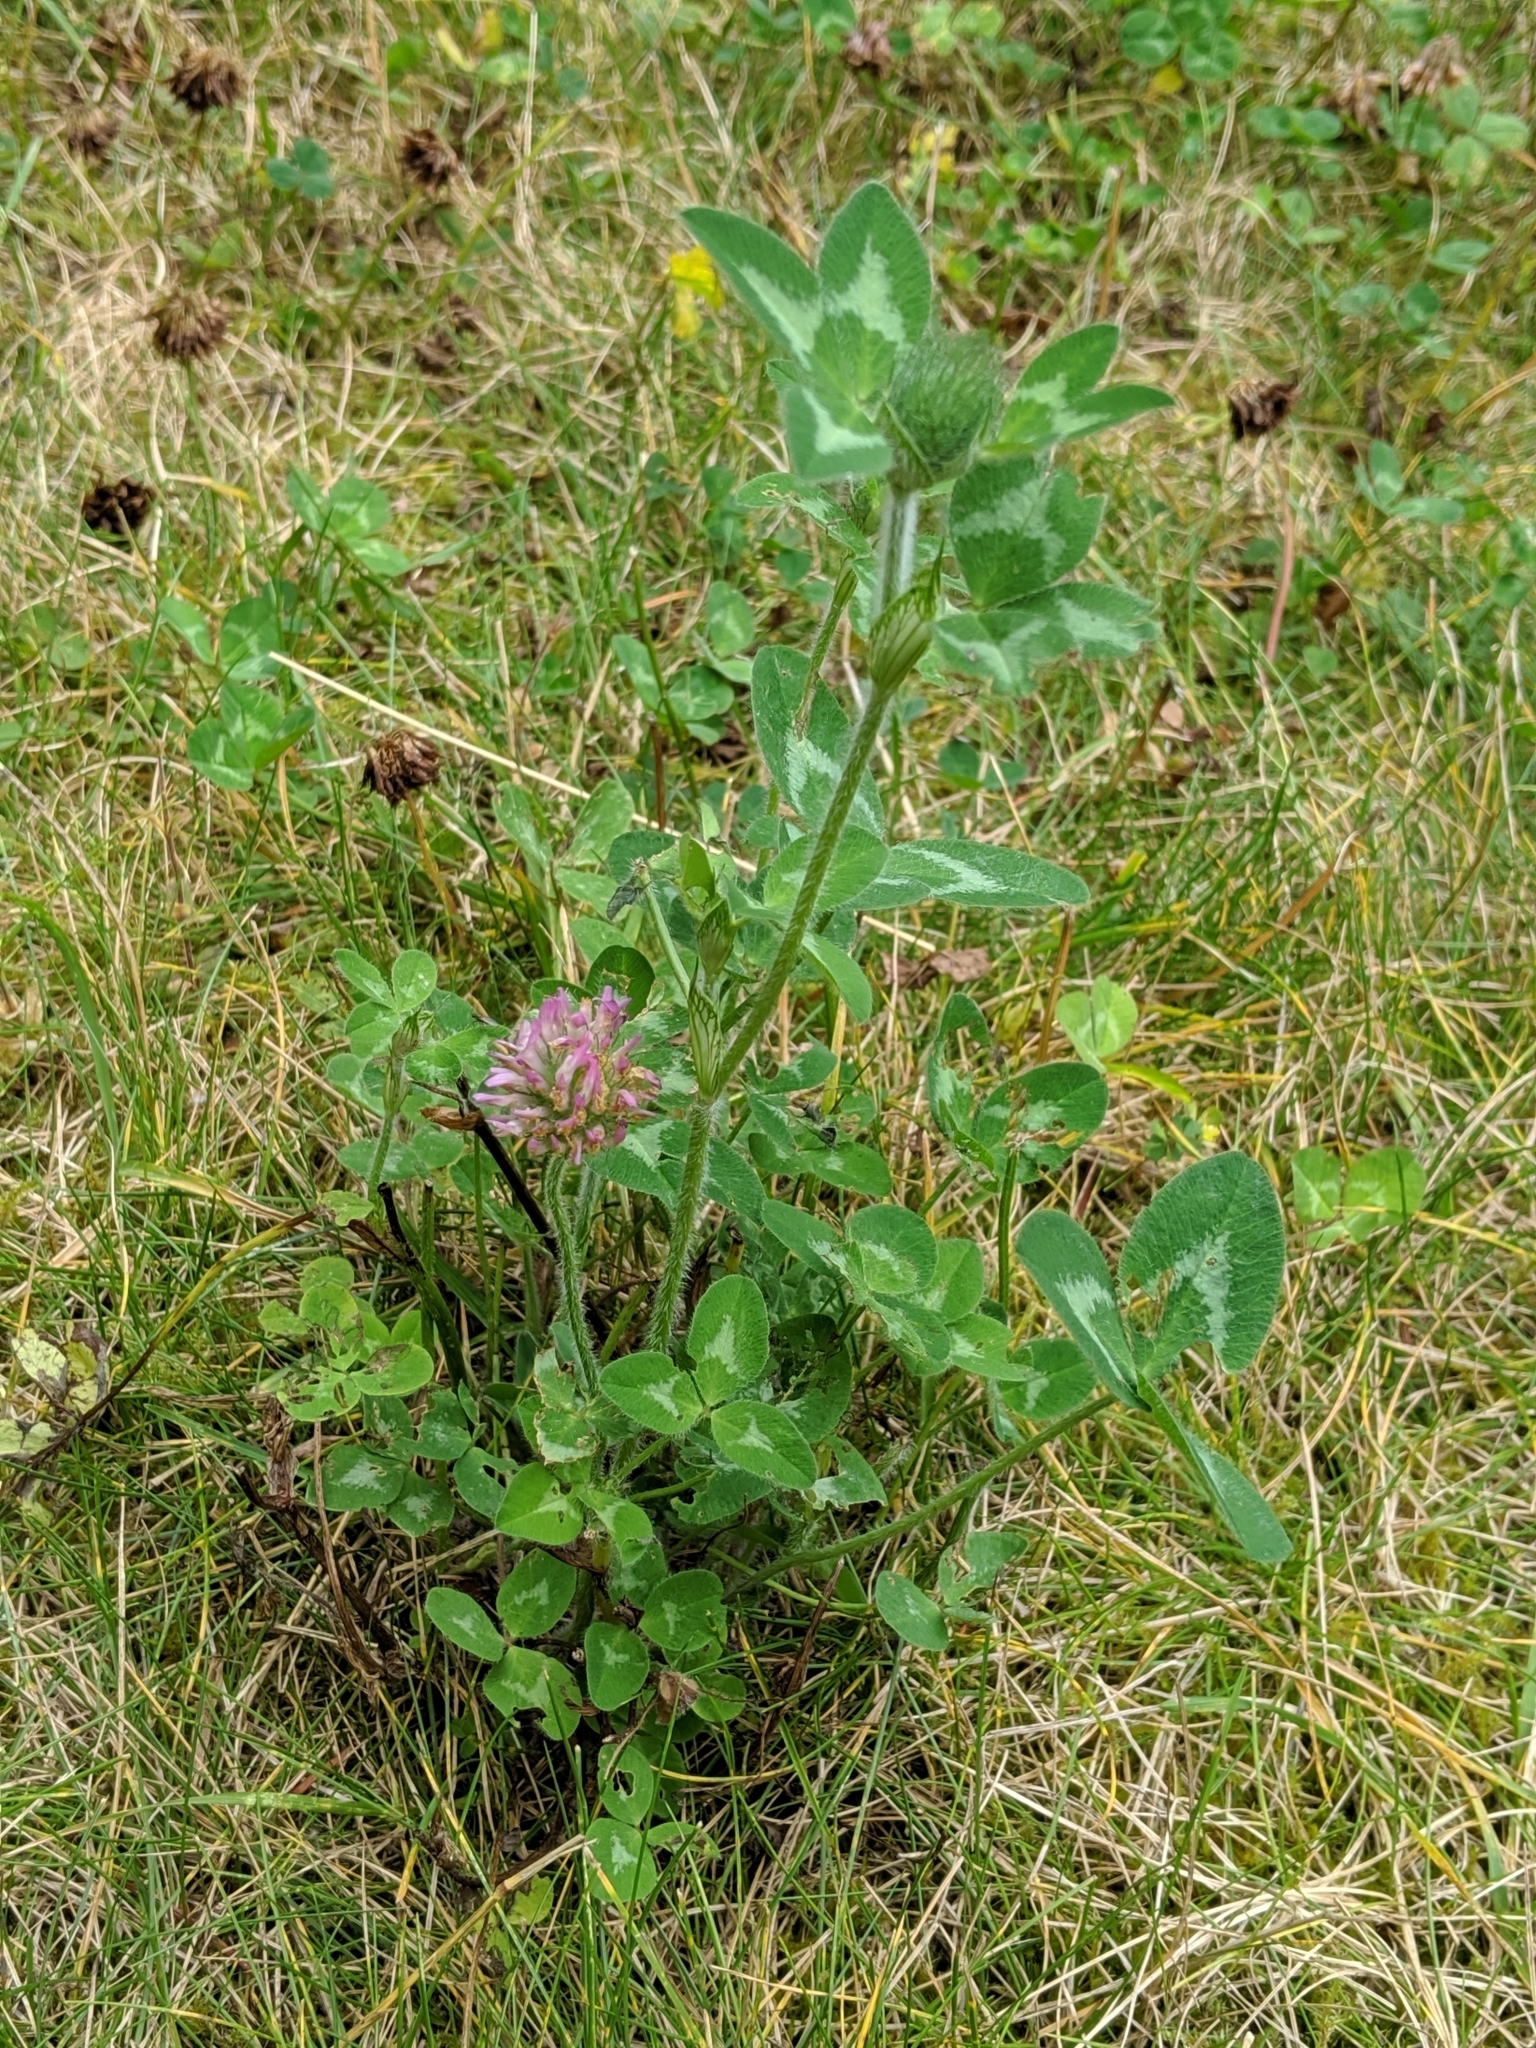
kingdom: Plantae
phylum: Tracheophyta
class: Magnoliopsida
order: Fabales
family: Fabaceae
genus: Trifolium
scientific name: Trifolium pratense
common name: Red clover
